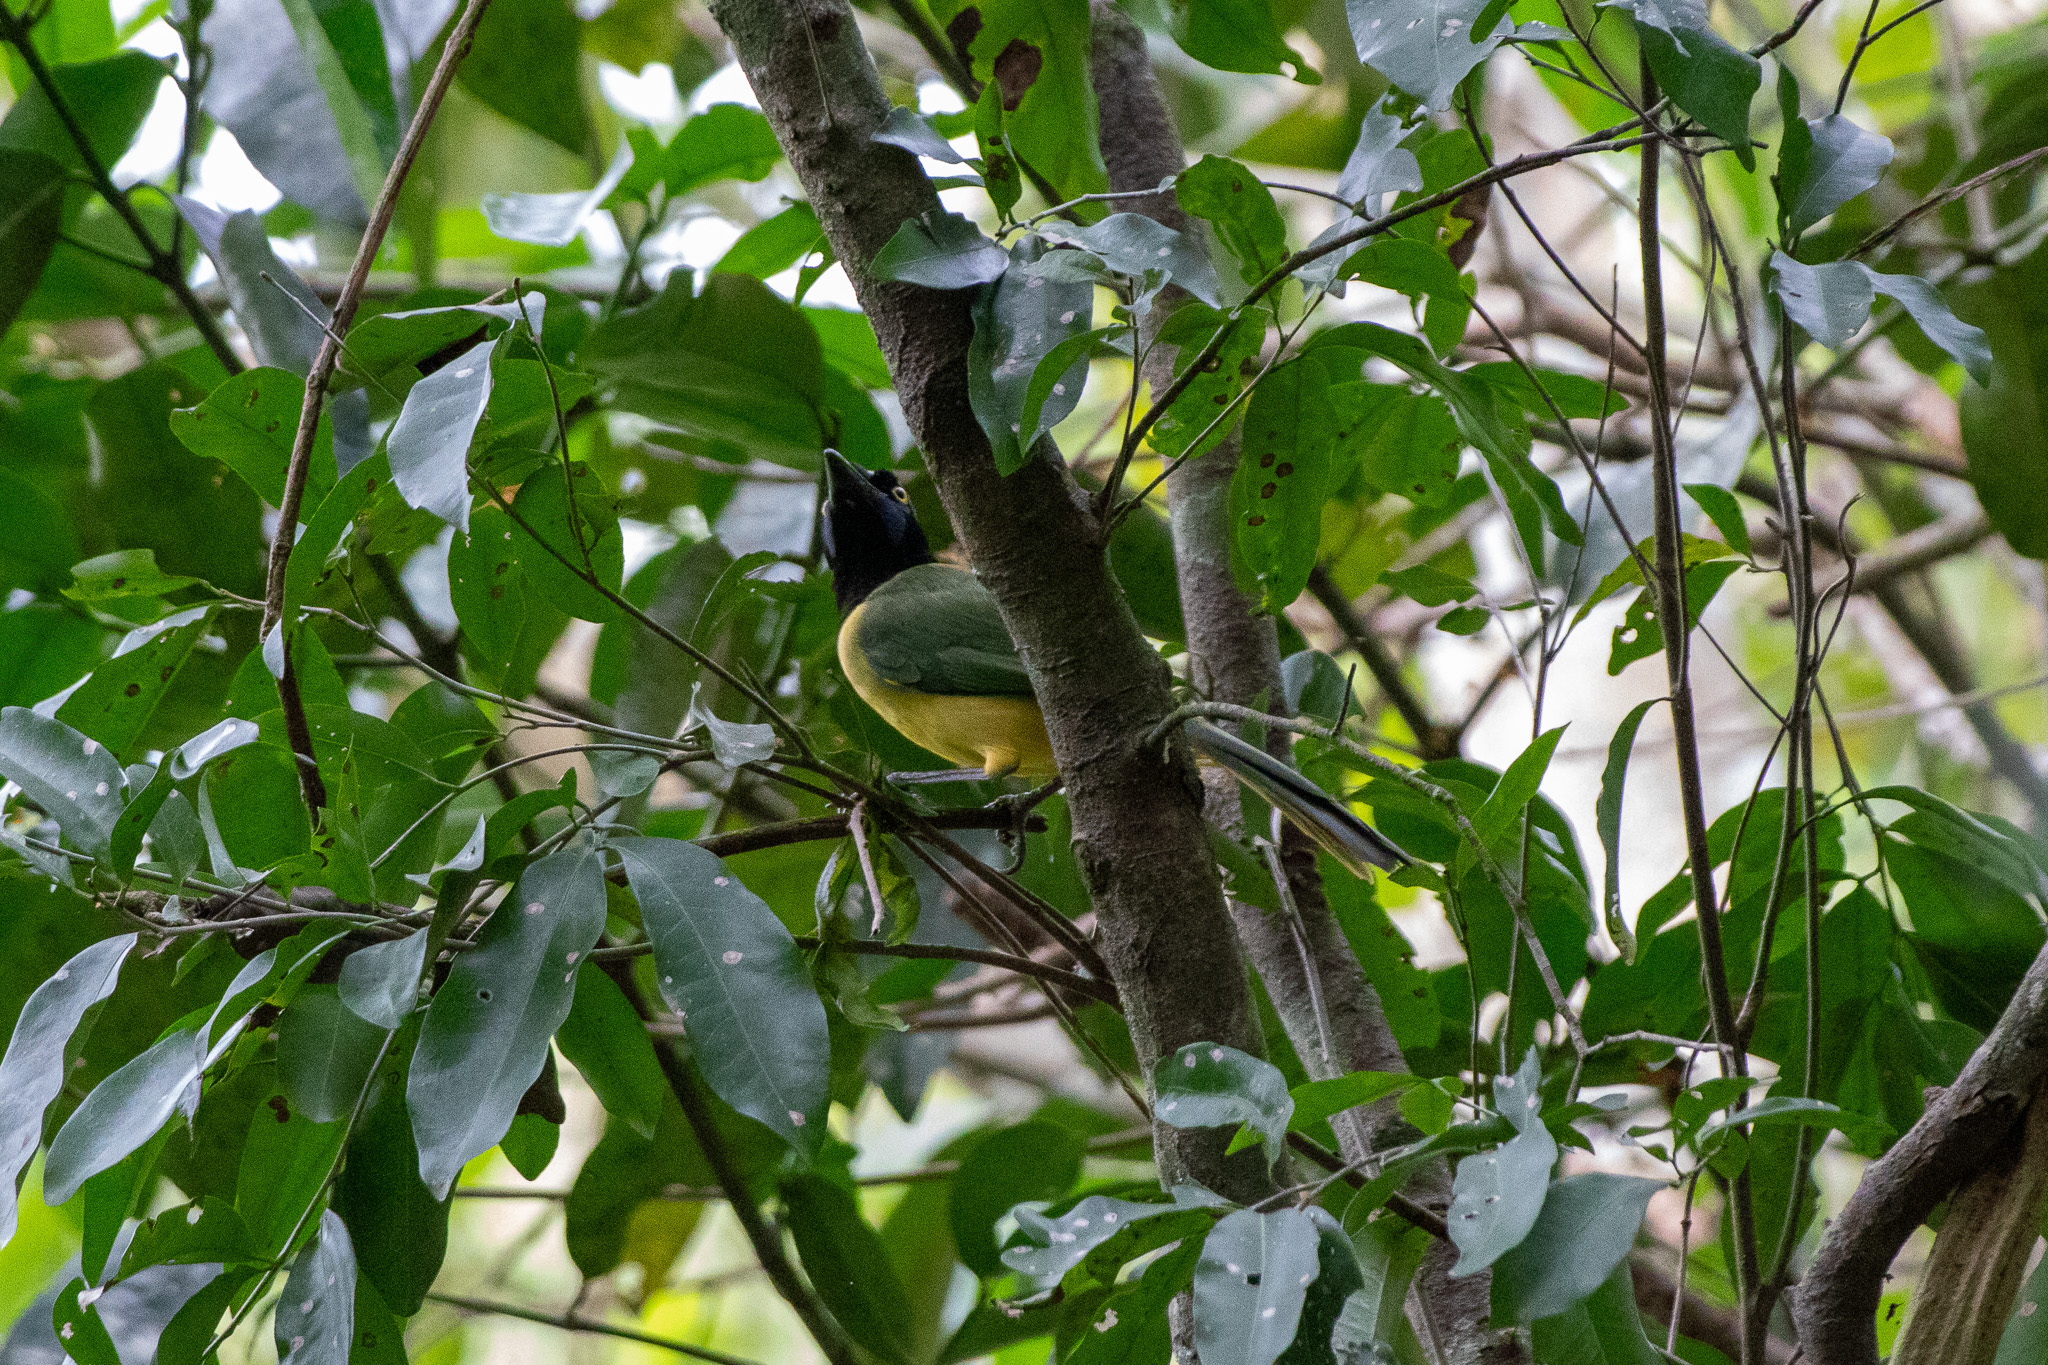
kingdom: Animalia
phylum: Chordata
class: Aves
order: Passeriformes
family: Corvidae
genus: Cyanocorax
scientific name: Cyanocorax yncas
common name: Green jay
